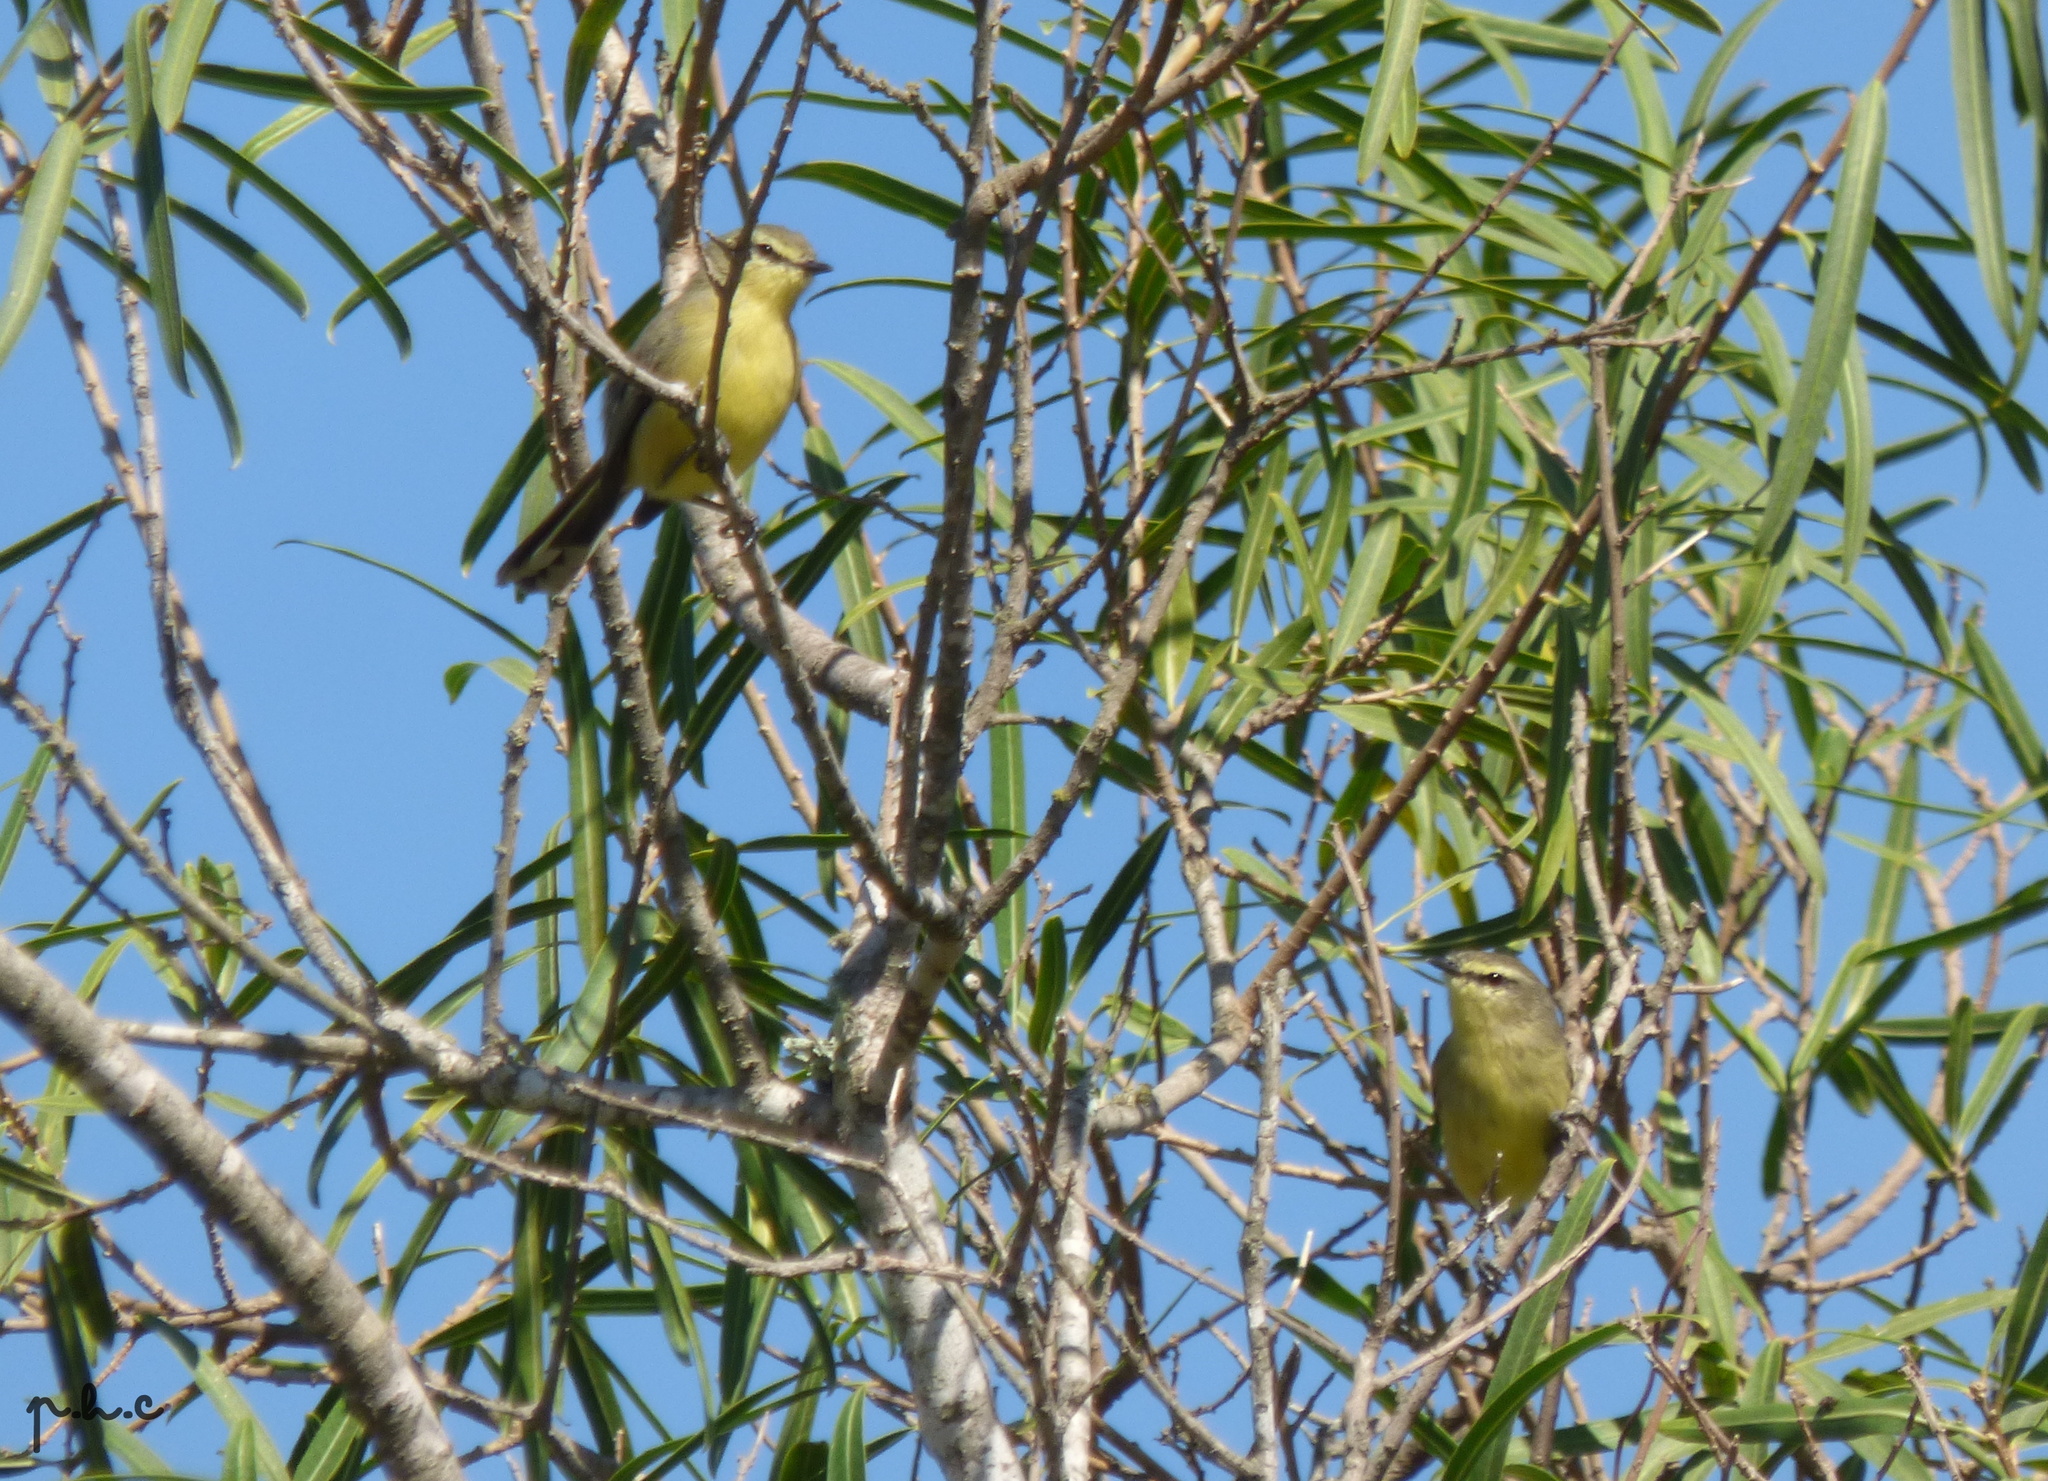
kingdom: Animalia
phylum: Chordata
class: Aves
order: Passeriformes
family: Tyrannidae
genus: Stigmatura
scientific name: Stigmatura budytoides
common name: Greater wagtail-tyrant
